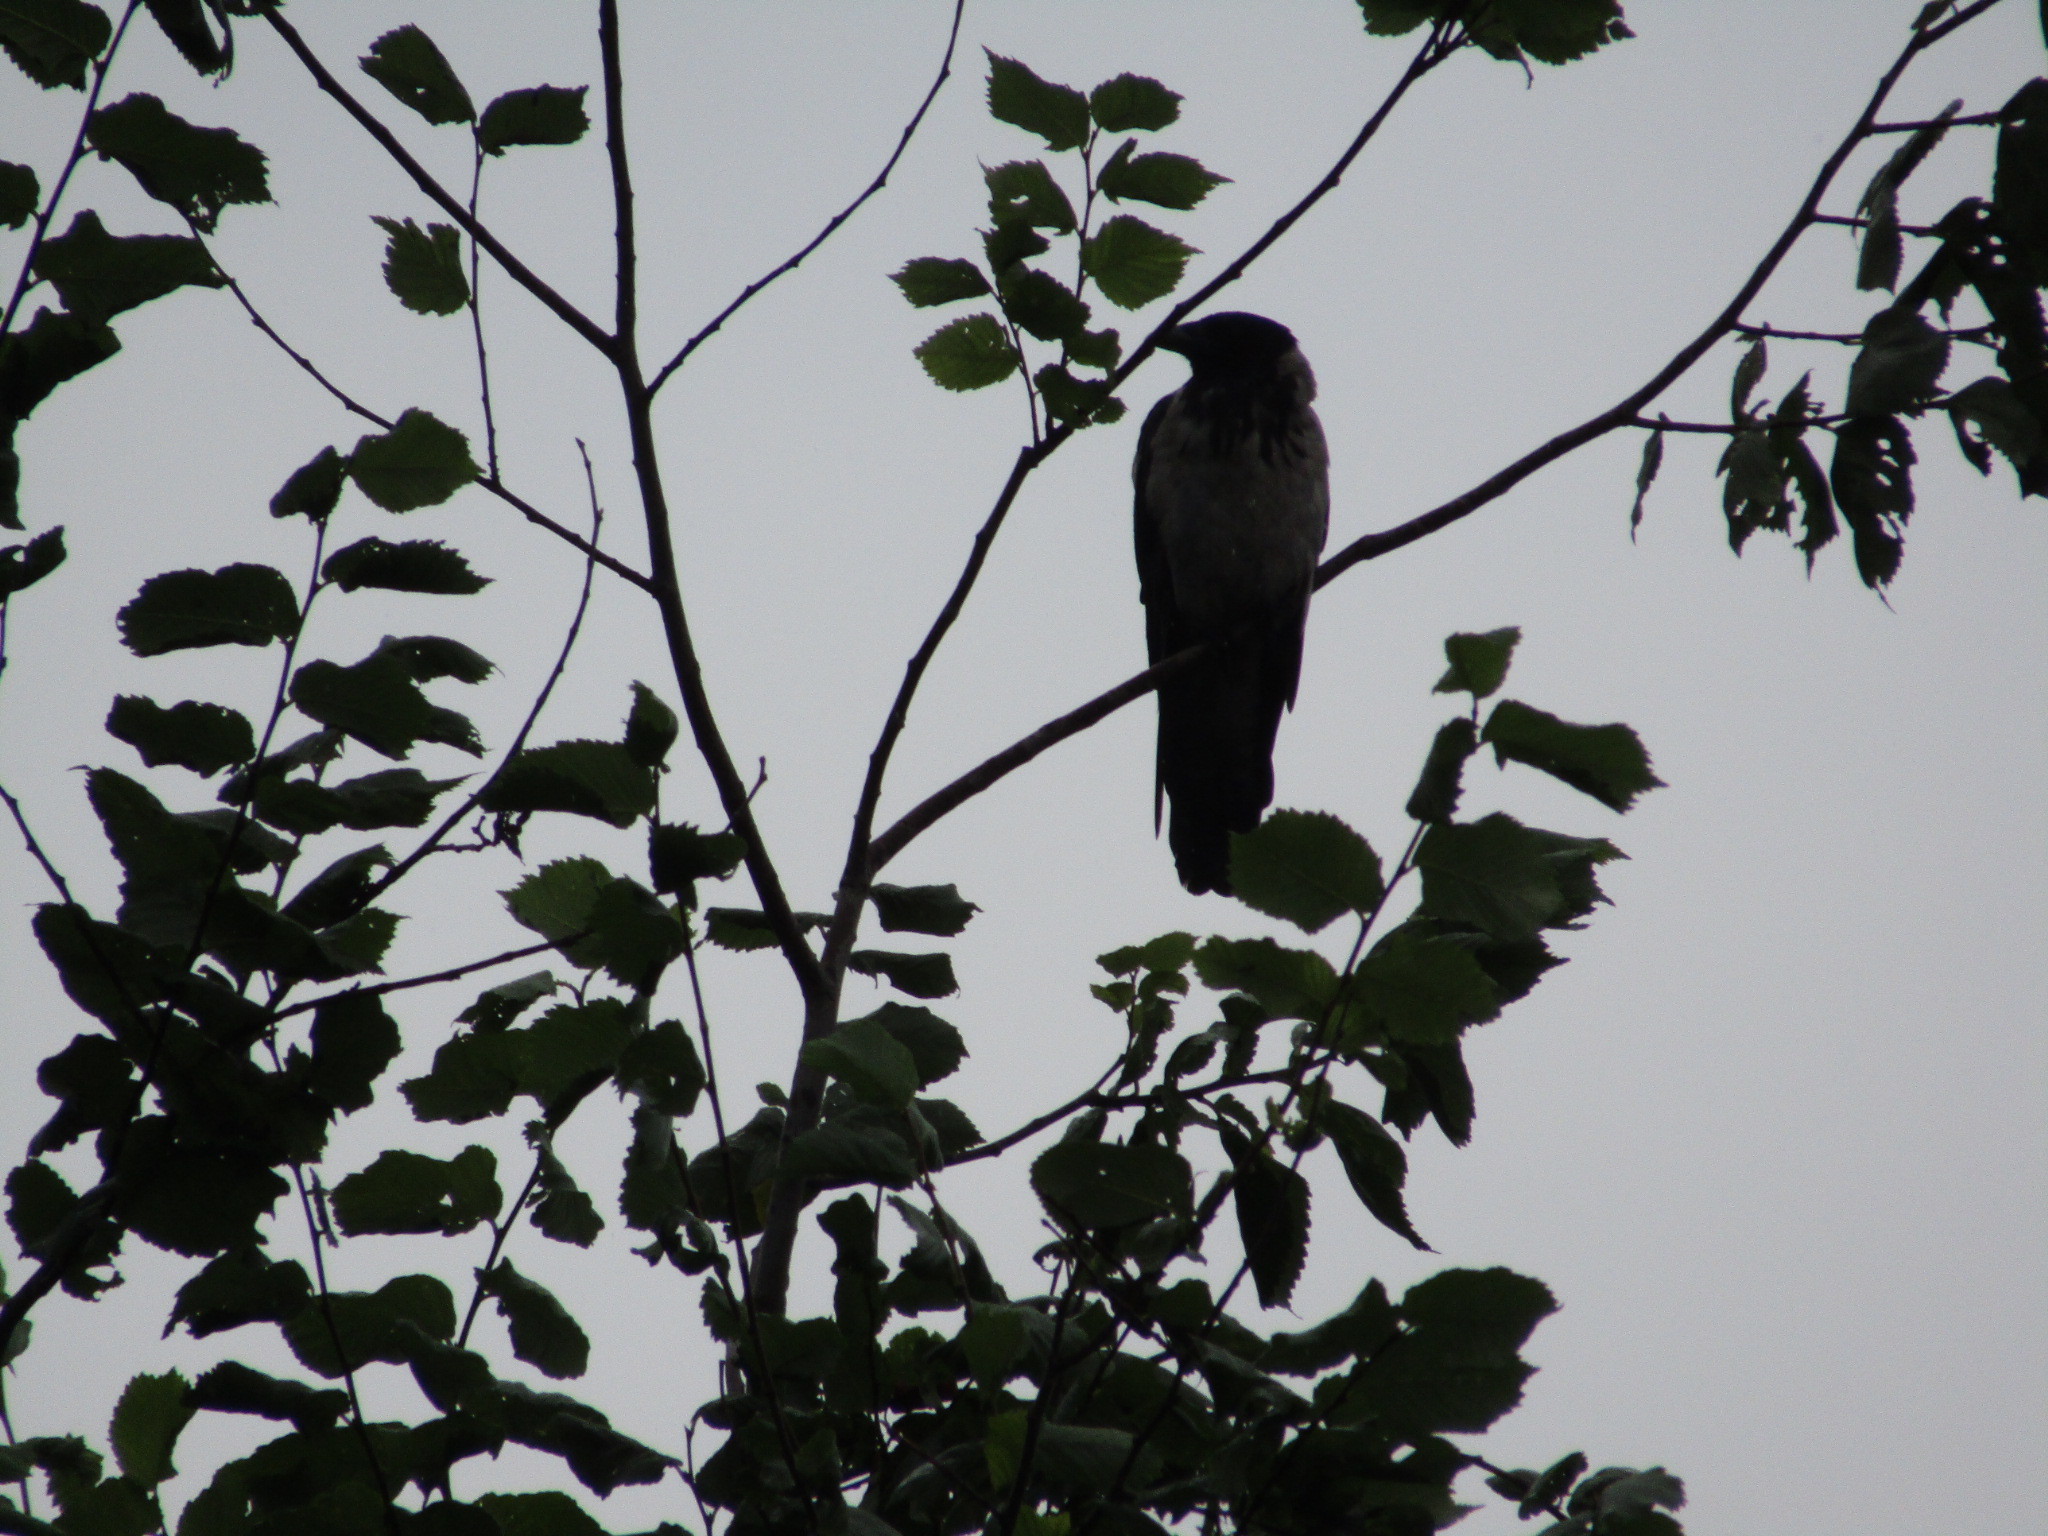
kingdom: Animalia
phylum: Chordata
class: Aves
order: Passeriformes
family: Corvidae
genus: Corvus
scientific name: Corvus cornix
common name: Hooded crow
